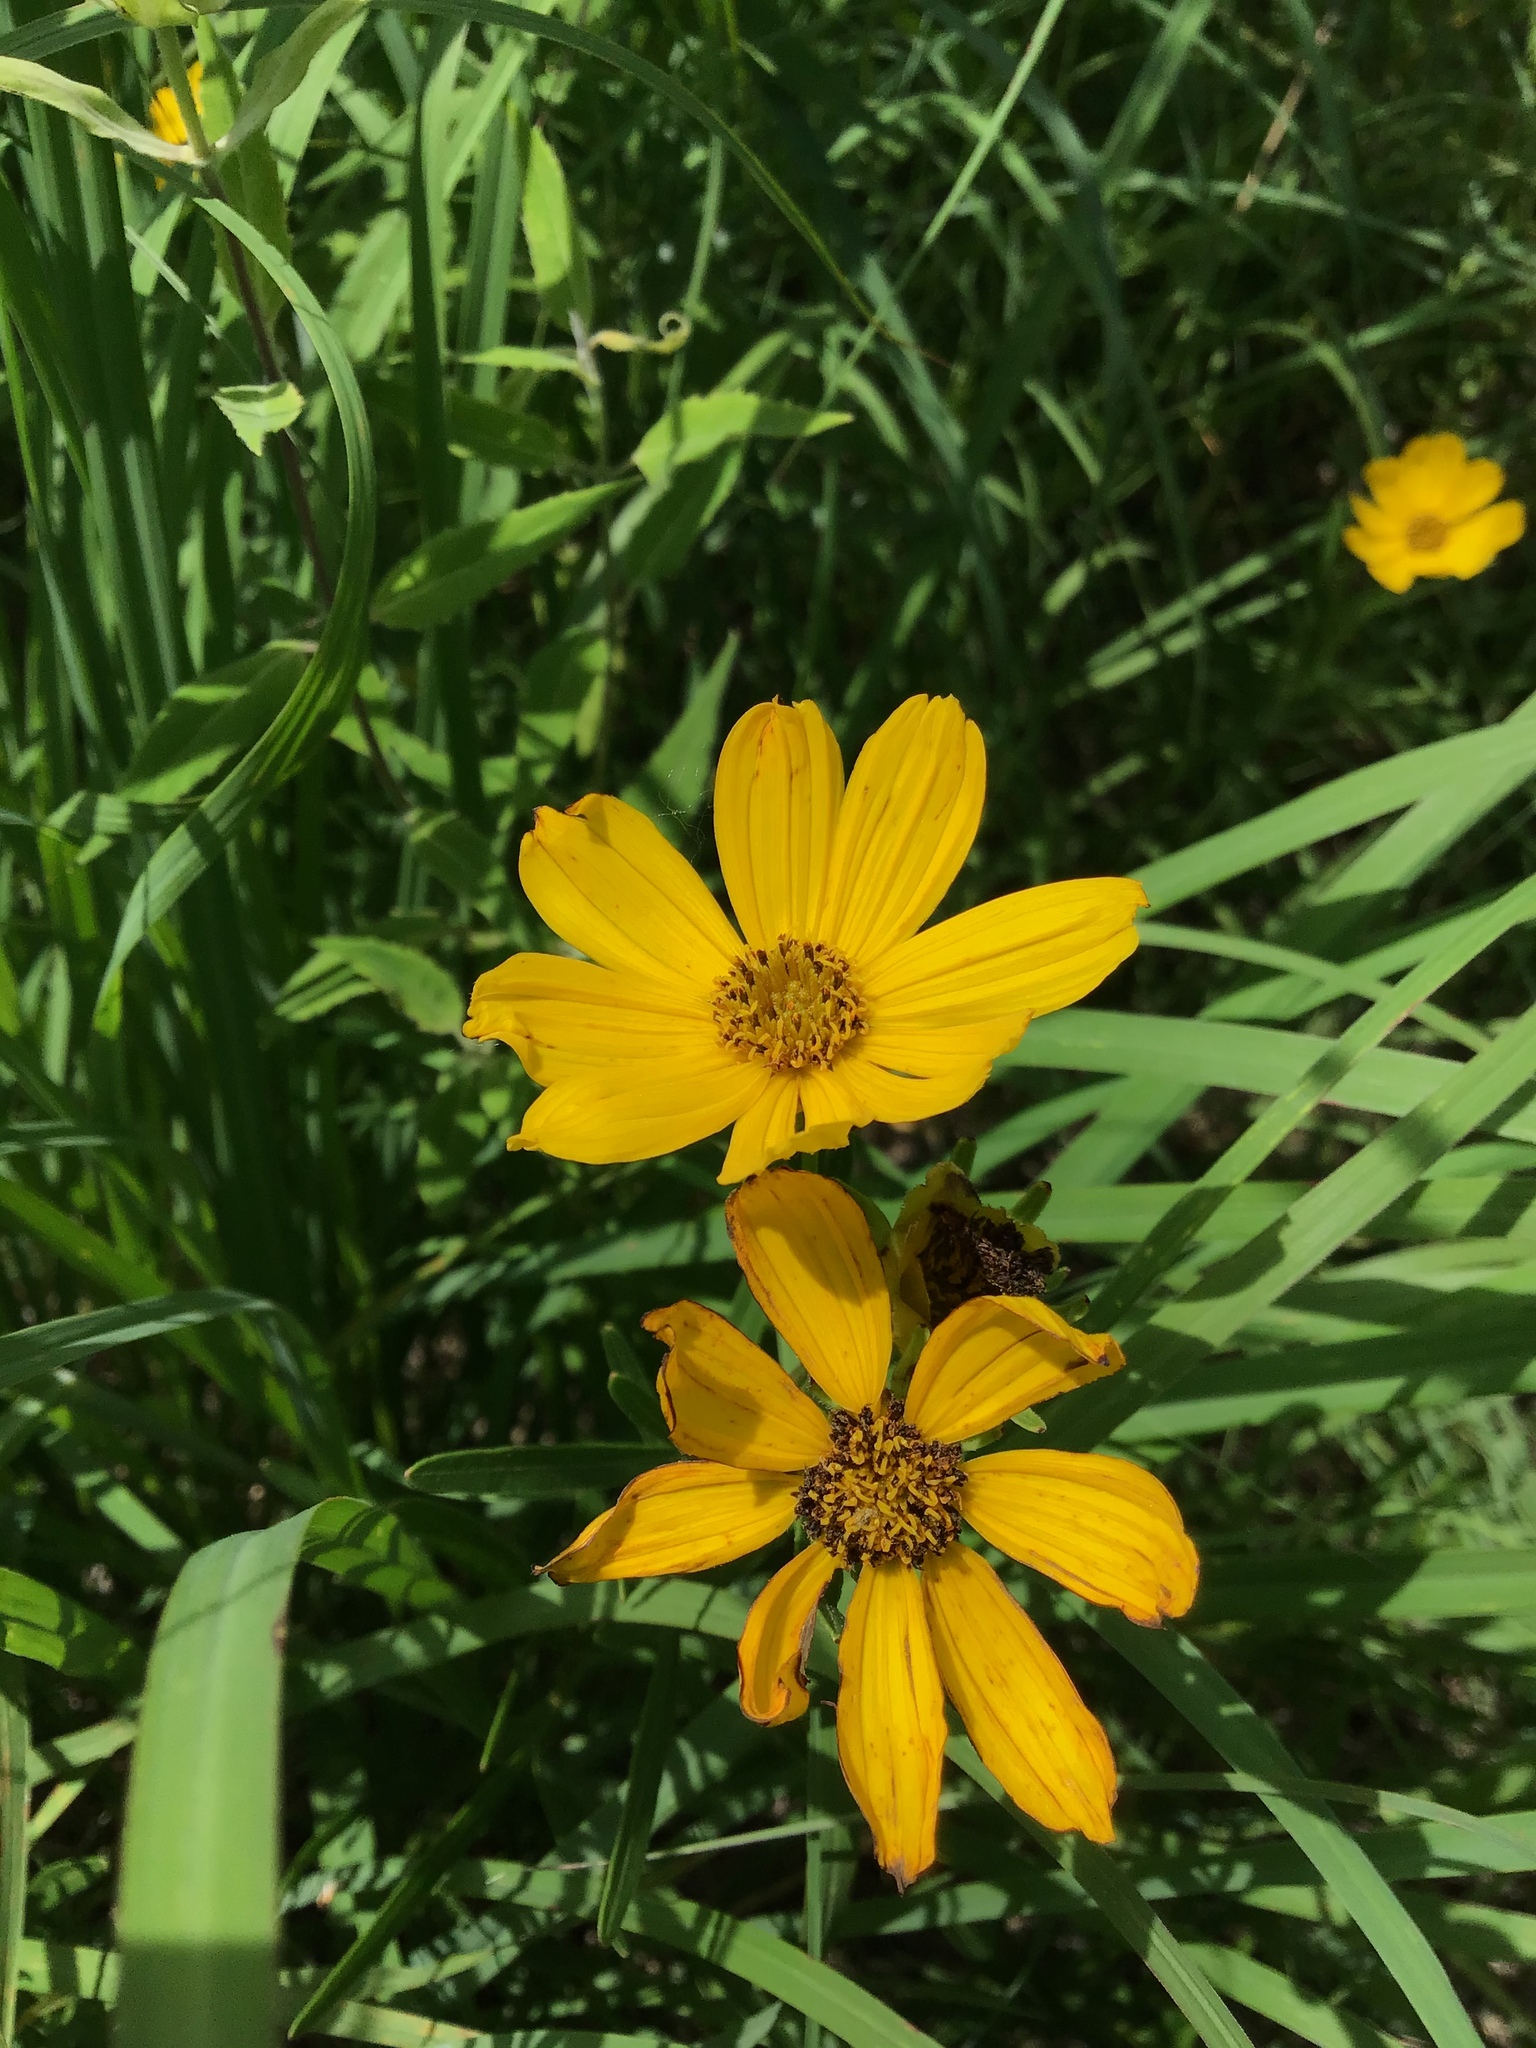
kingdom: Plantae
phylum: Tracheophyta
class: Magnoliopsida
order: Asterales
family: Asteraceae
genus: Coreopsis
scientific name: Coreopsis palmata
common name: Prairie coreopsis
